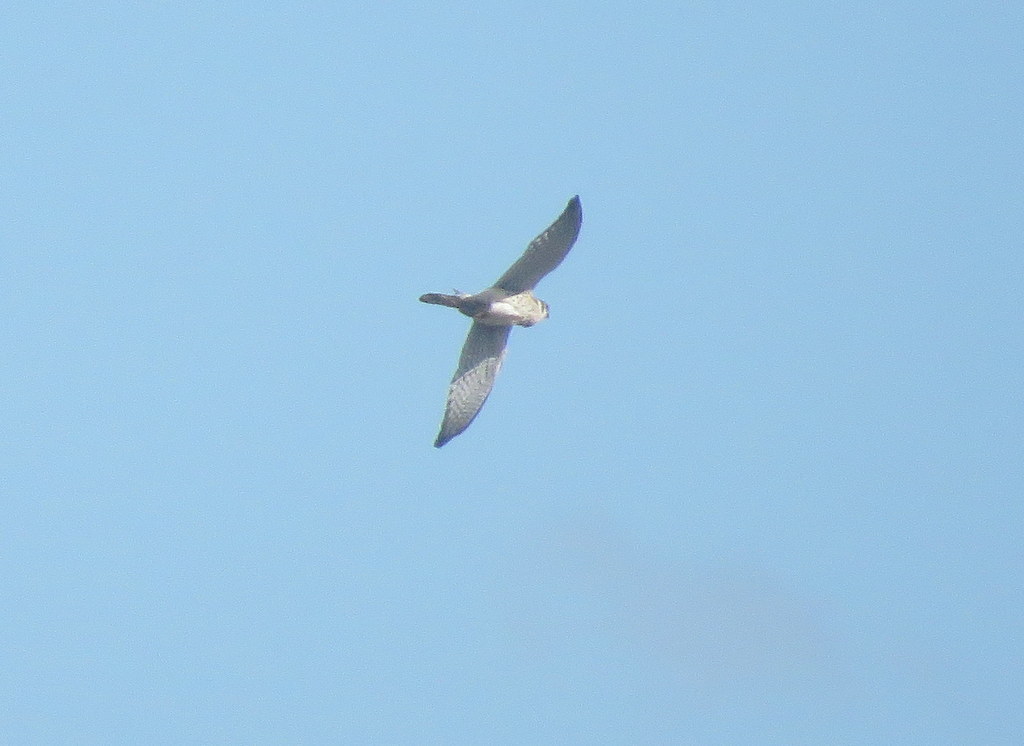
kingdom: Animalia
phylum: Chordata
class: Aves
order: Falconiformes
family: Falconidae
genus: Falco
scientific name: Falco sparverius
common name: American kestrel
